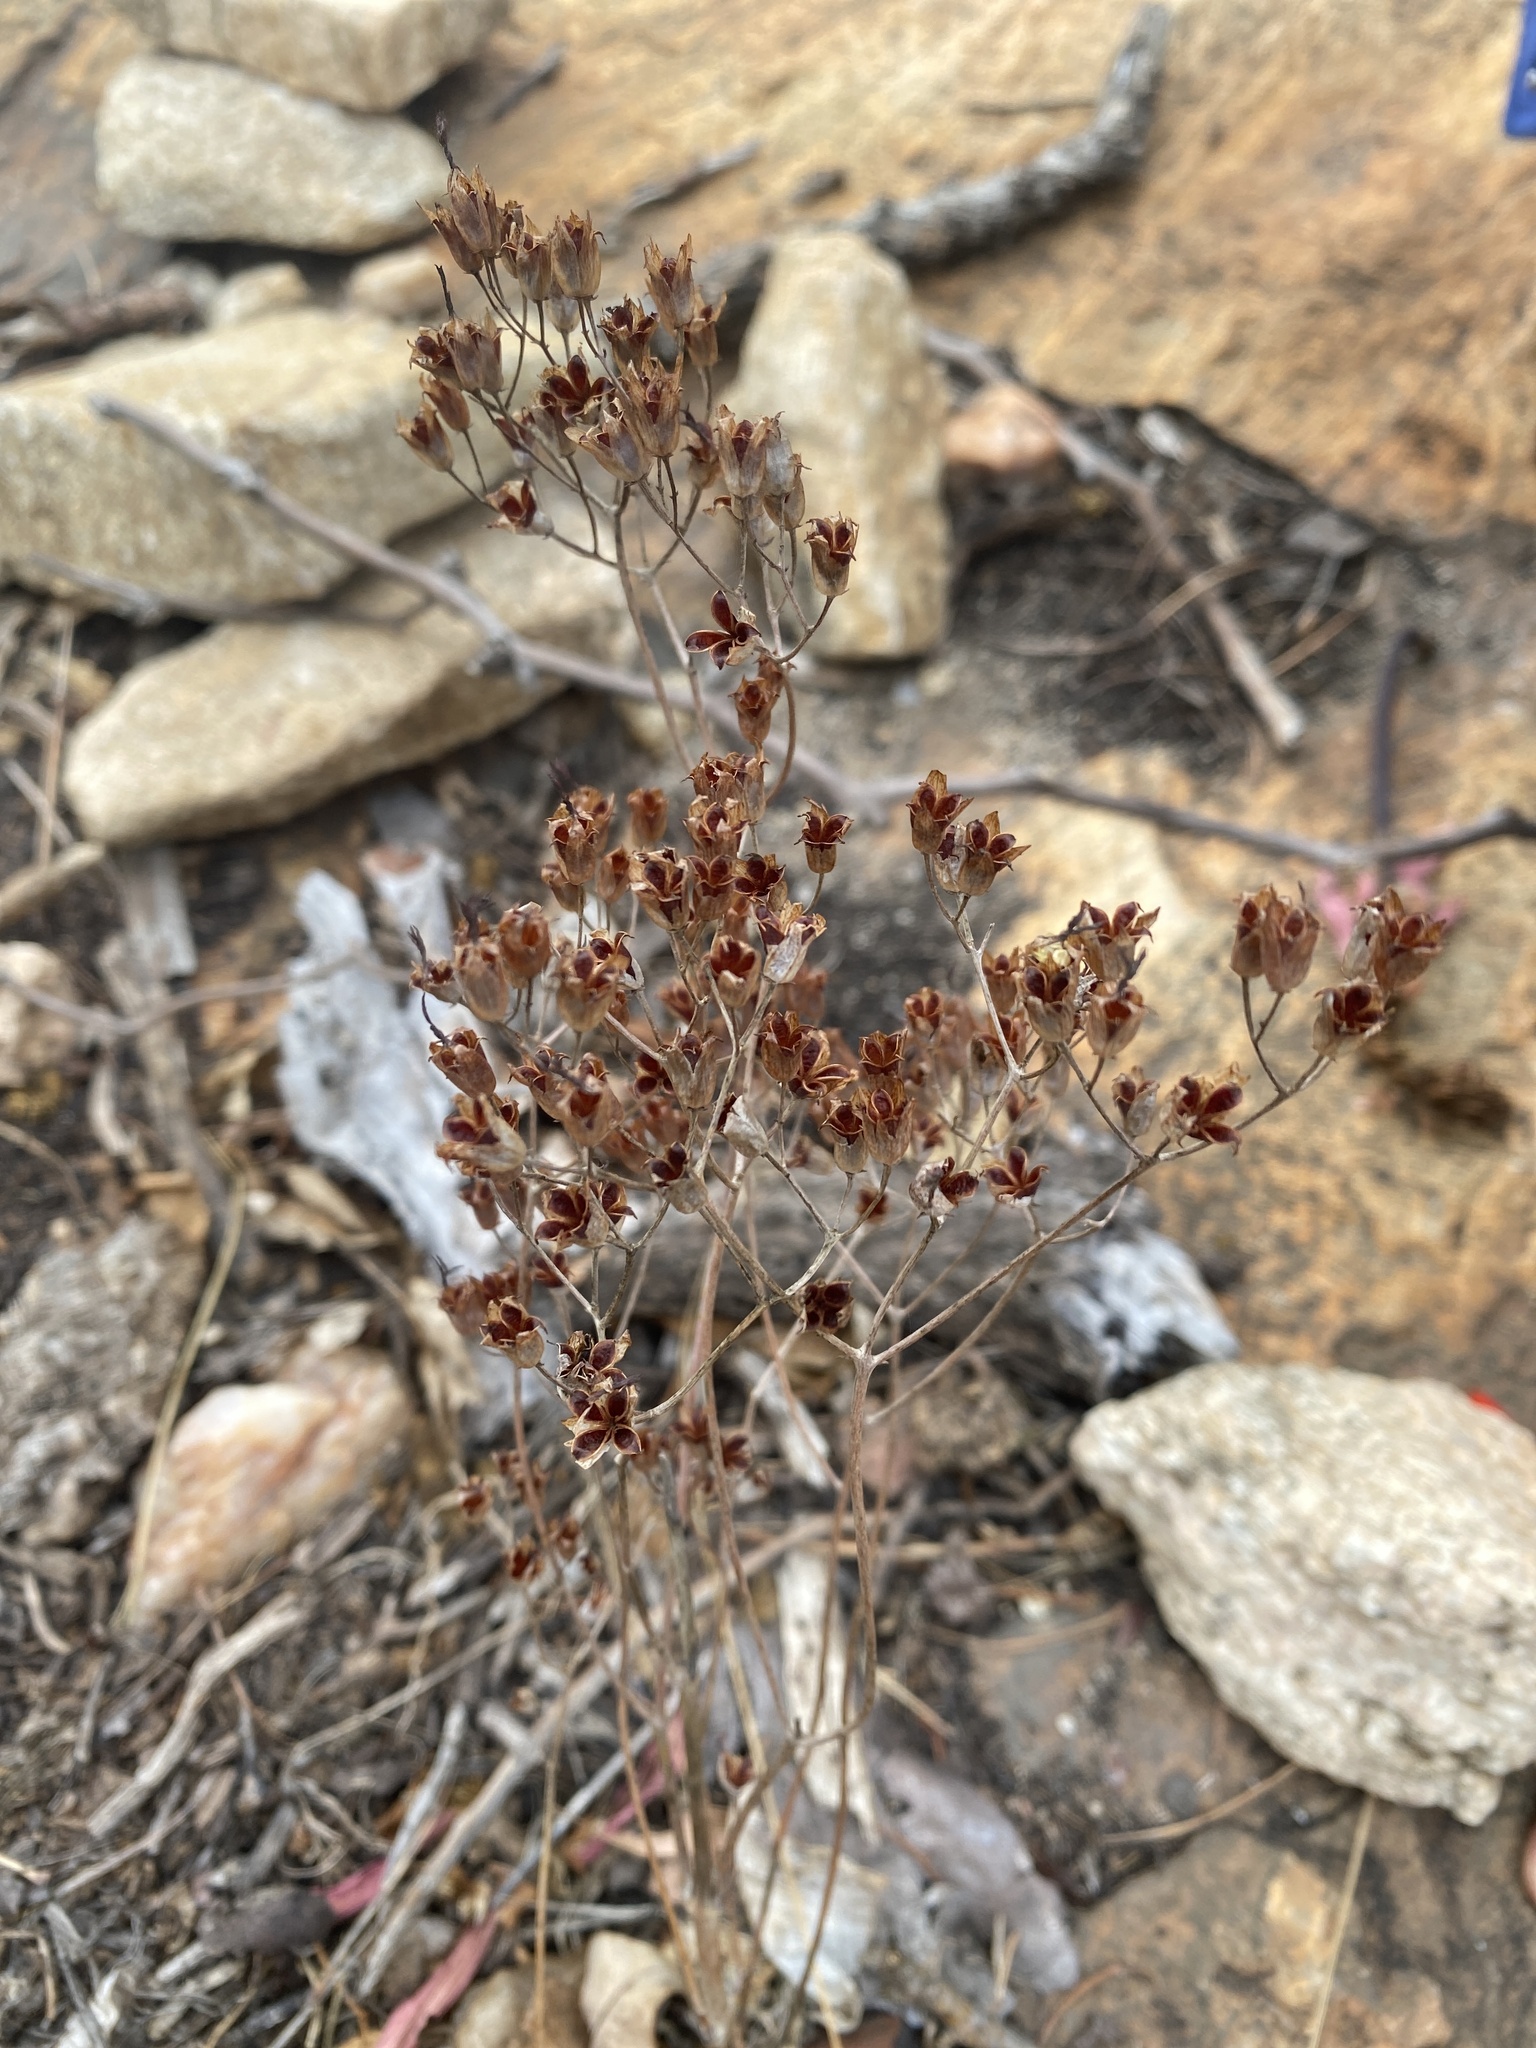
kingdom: Plantae
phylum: Tracheophyta
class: Magnoliopsida
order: Saxifragales
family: Crassulaceae
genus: Kalanchoe
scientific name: Kalanchoe rotundifolia
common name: Common kalanchoe
